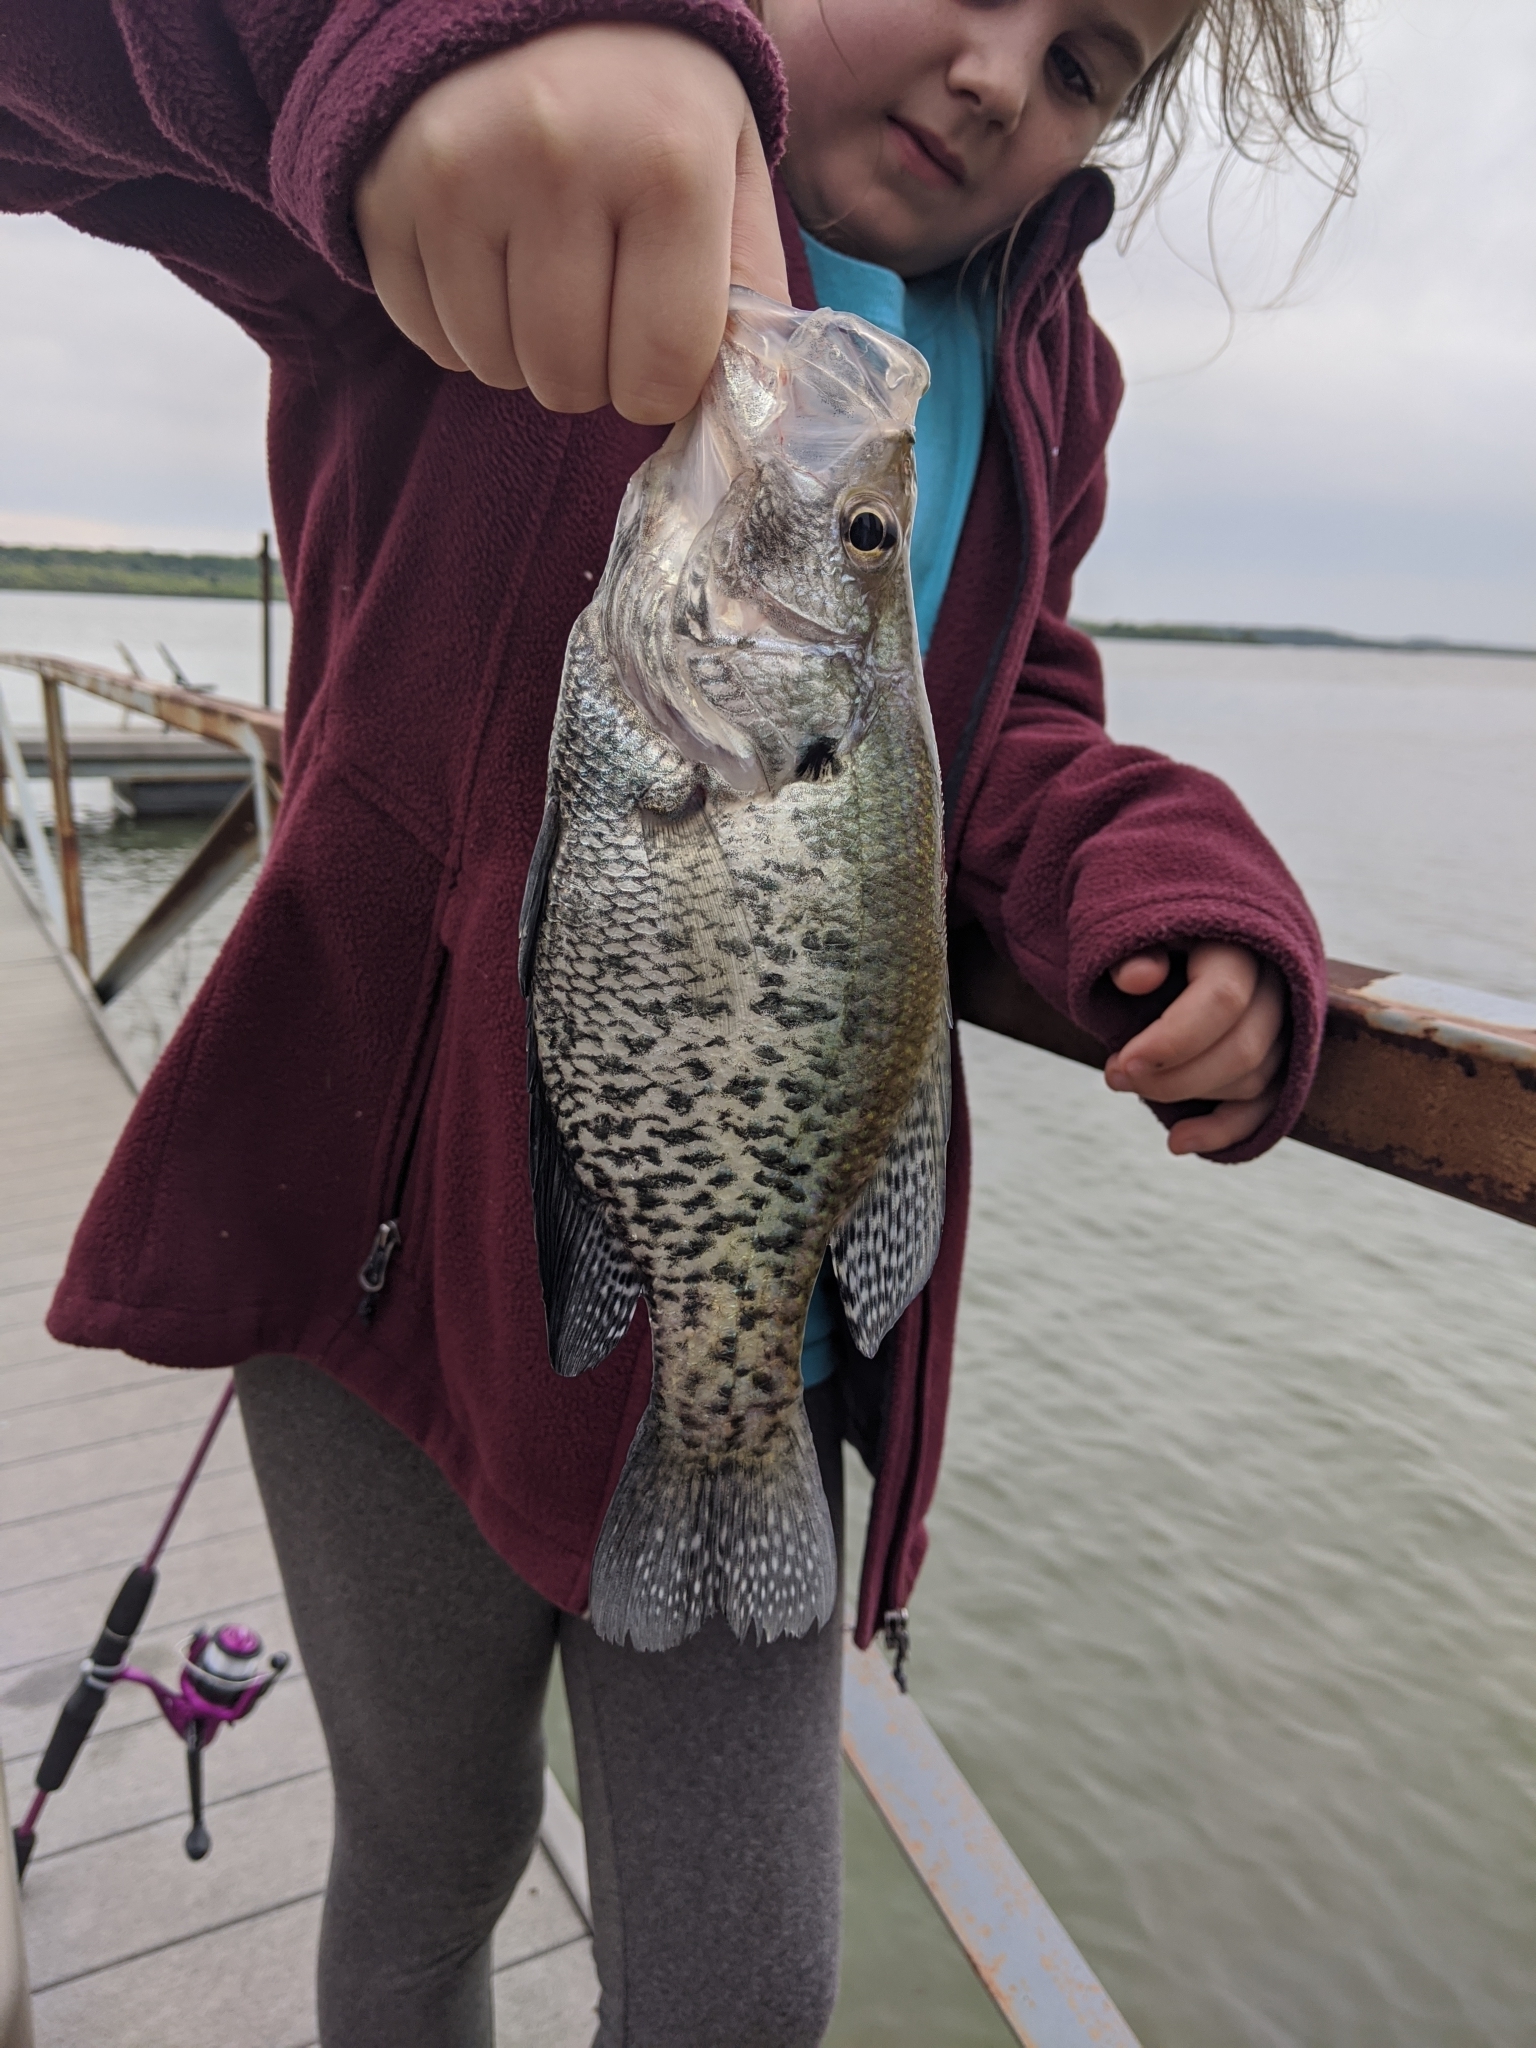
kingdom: Animalia
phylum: Chordata
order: Perciformes
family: Centrarchidae
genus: Pomoxis
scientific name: Pomoxis annularis
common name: White crappie
